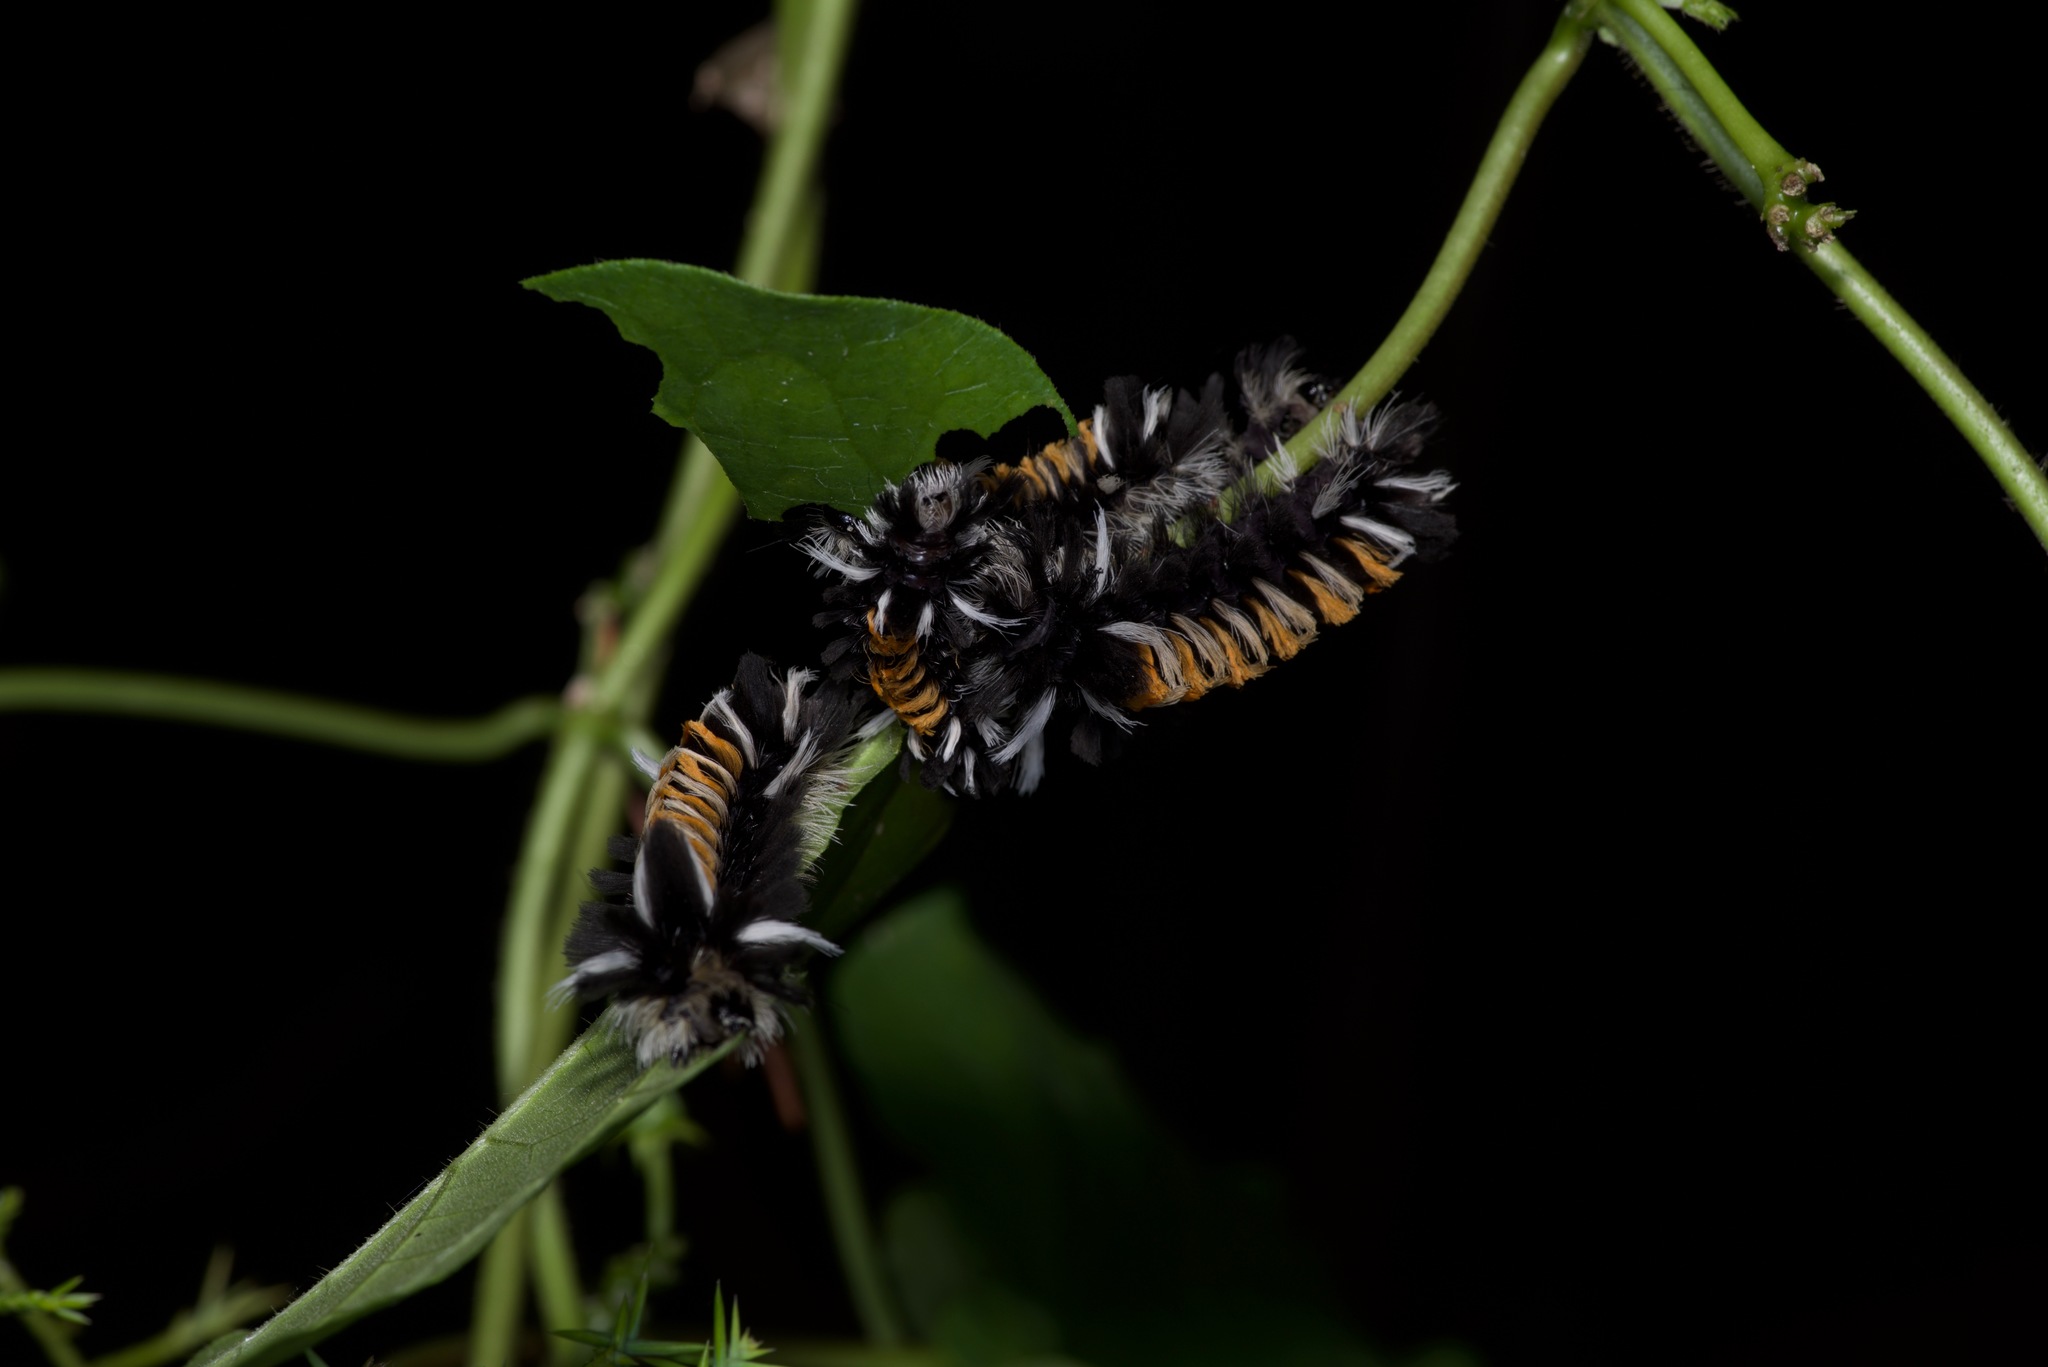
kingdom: Animalia
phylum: Arthropoda
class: Insecta
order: Lepidoptera
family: Erebidae
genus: Euchaetes
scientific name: Euchaetes egle
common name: Milkweed tussock moth
